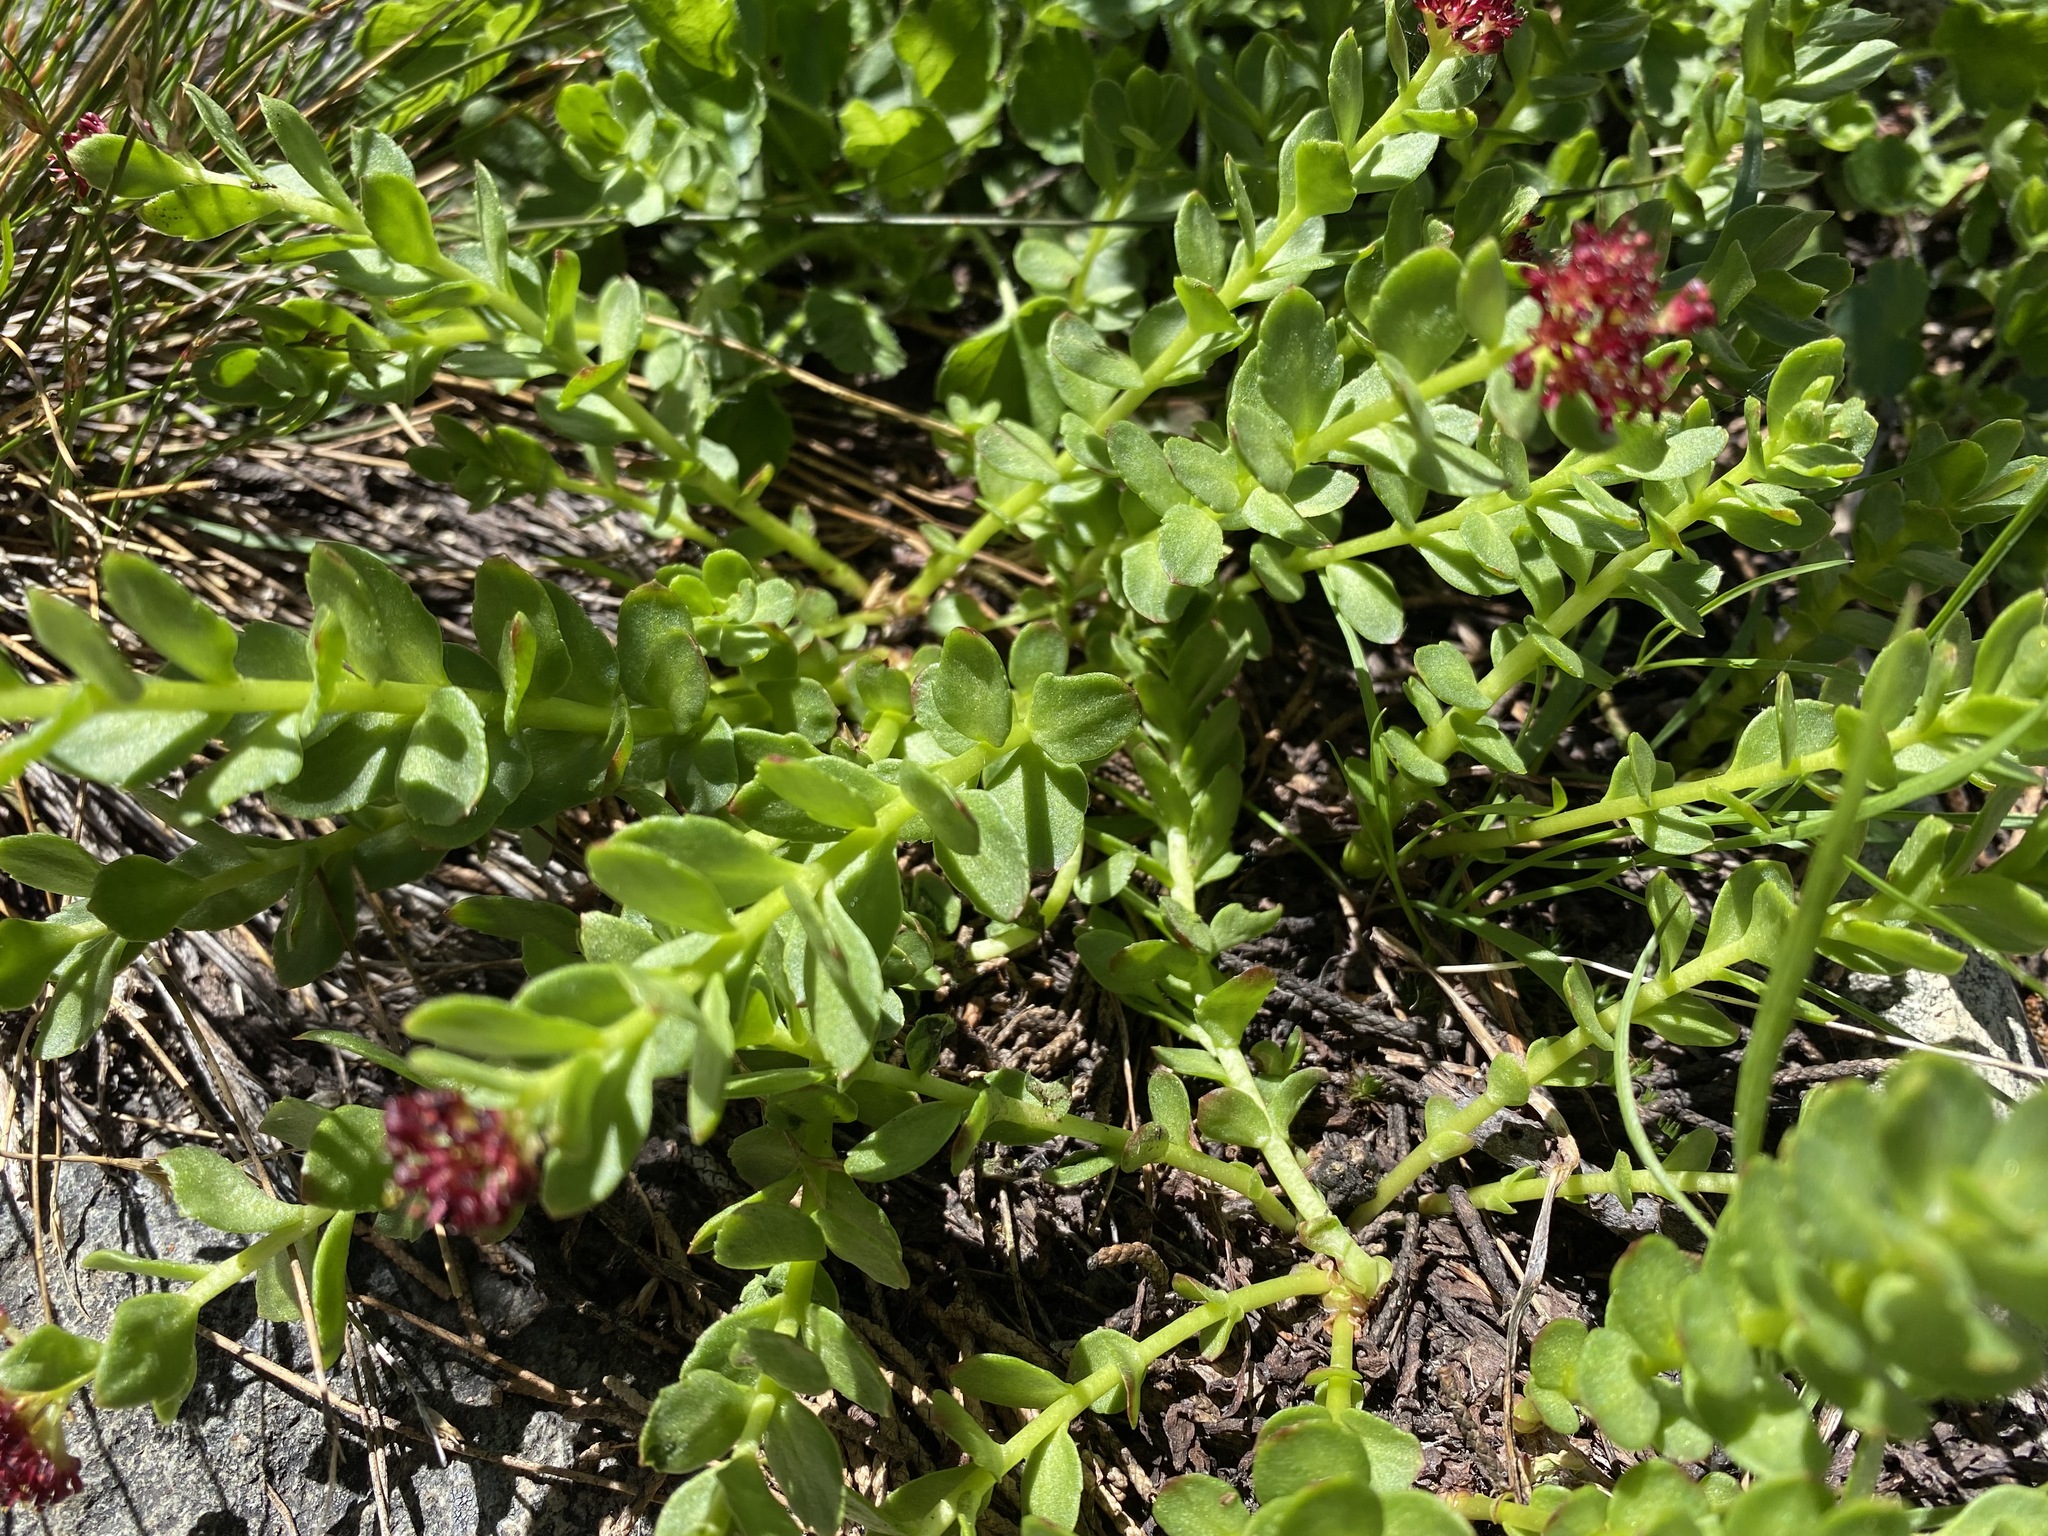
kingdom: Plantae
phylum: Tracheophyta
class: Magnoliopsida
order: Saxifragales
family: Crassulaceae
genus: Rhodiola
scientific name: Rhodiola integrifolia
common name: Western roseroot
